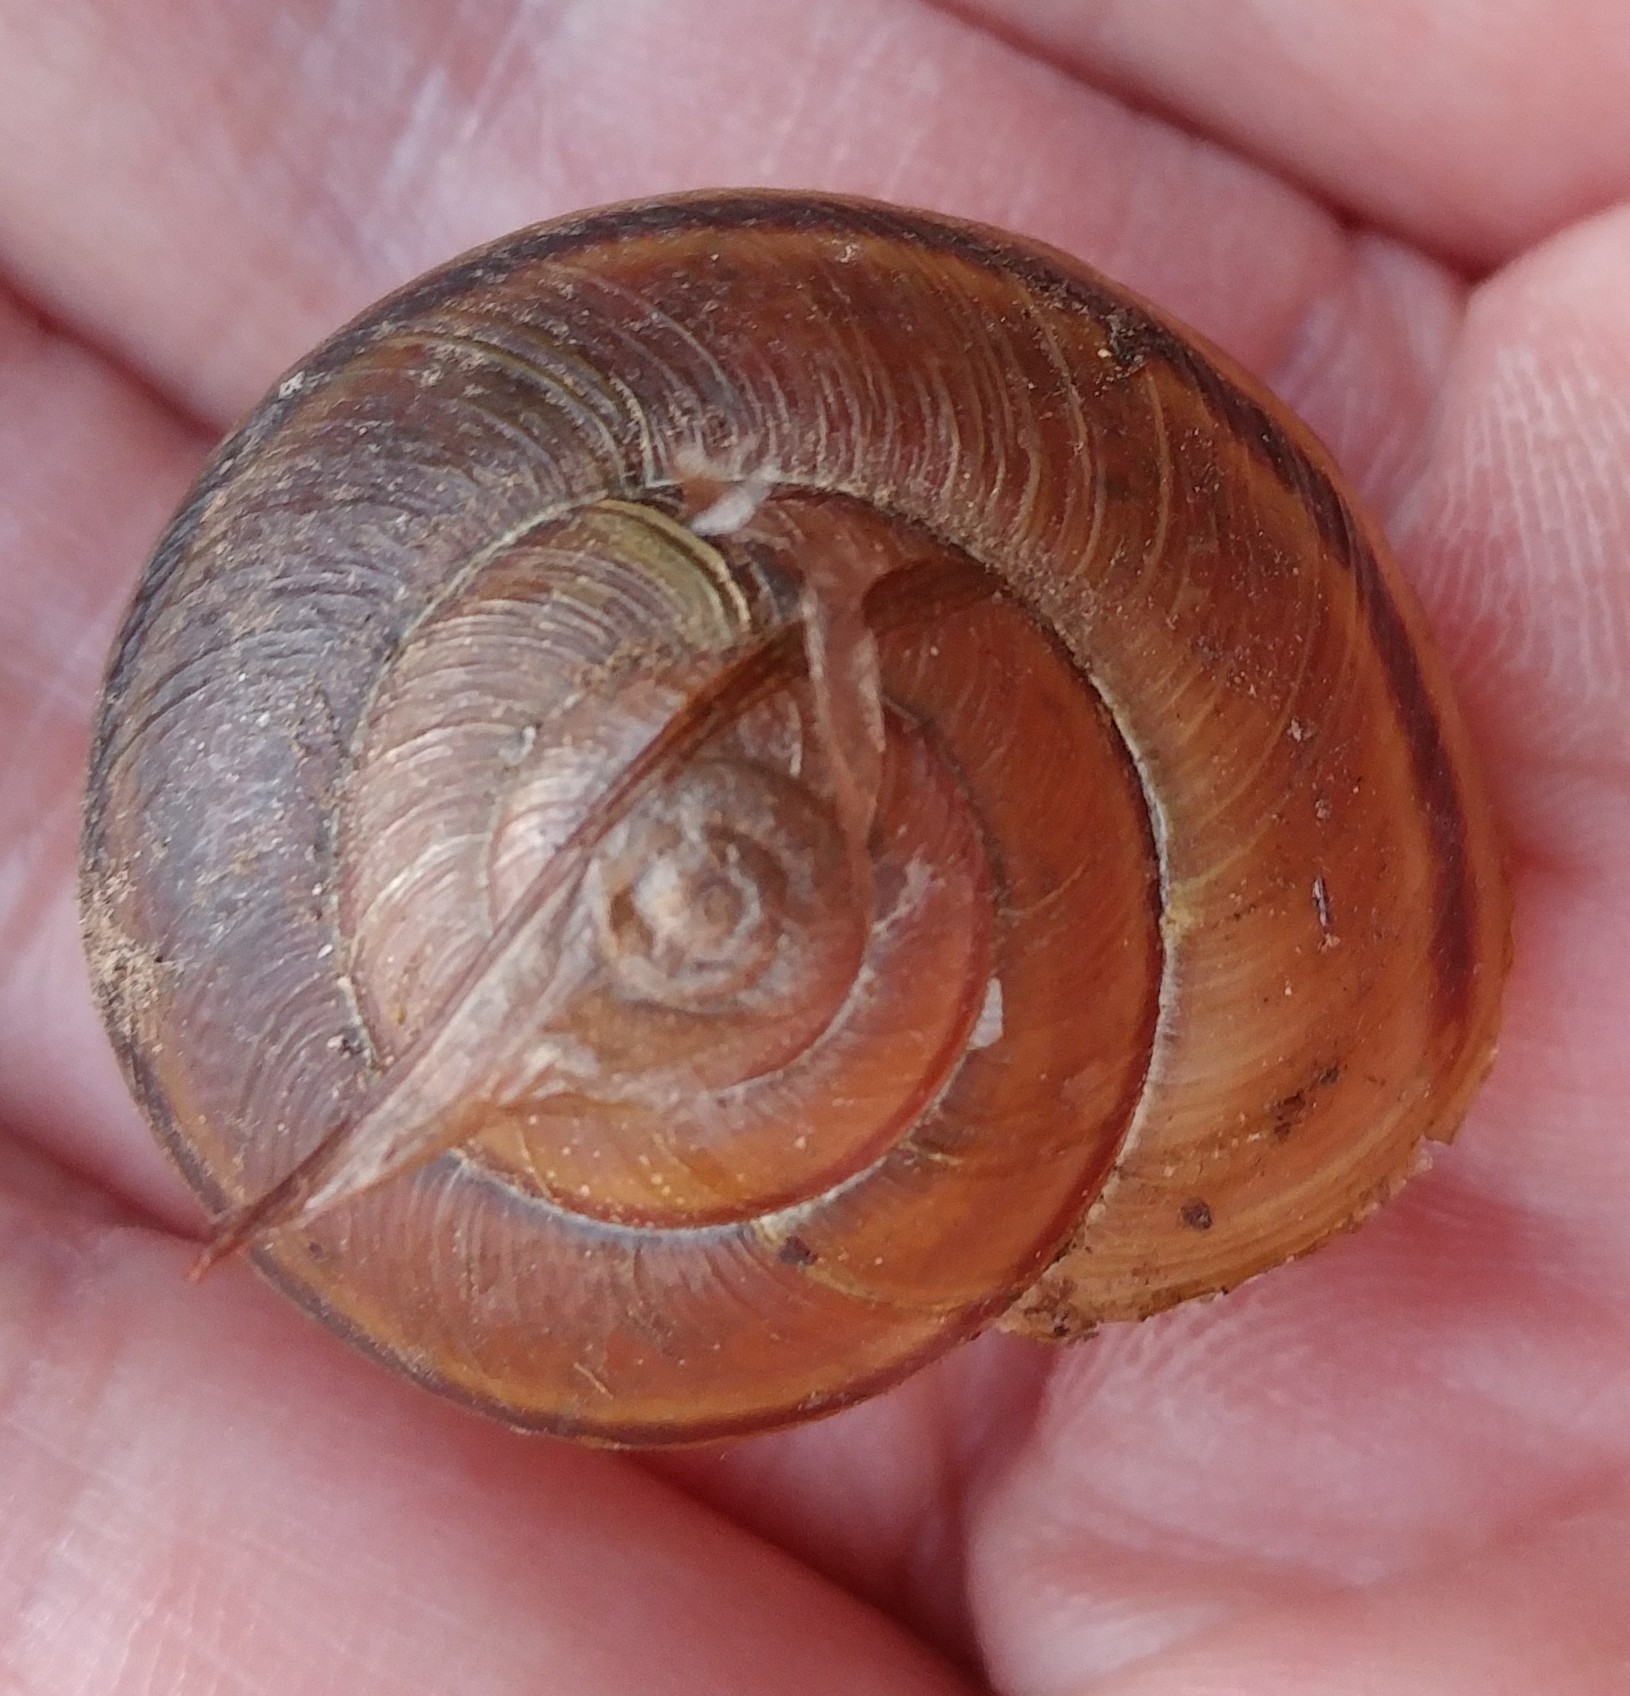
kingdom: Animalia
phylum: Mollusca
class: Gastropoda
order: Stylommatophora
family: Xanthonychidae
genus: Helminthoglypta
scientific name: Helminthoglypta tudiculata
